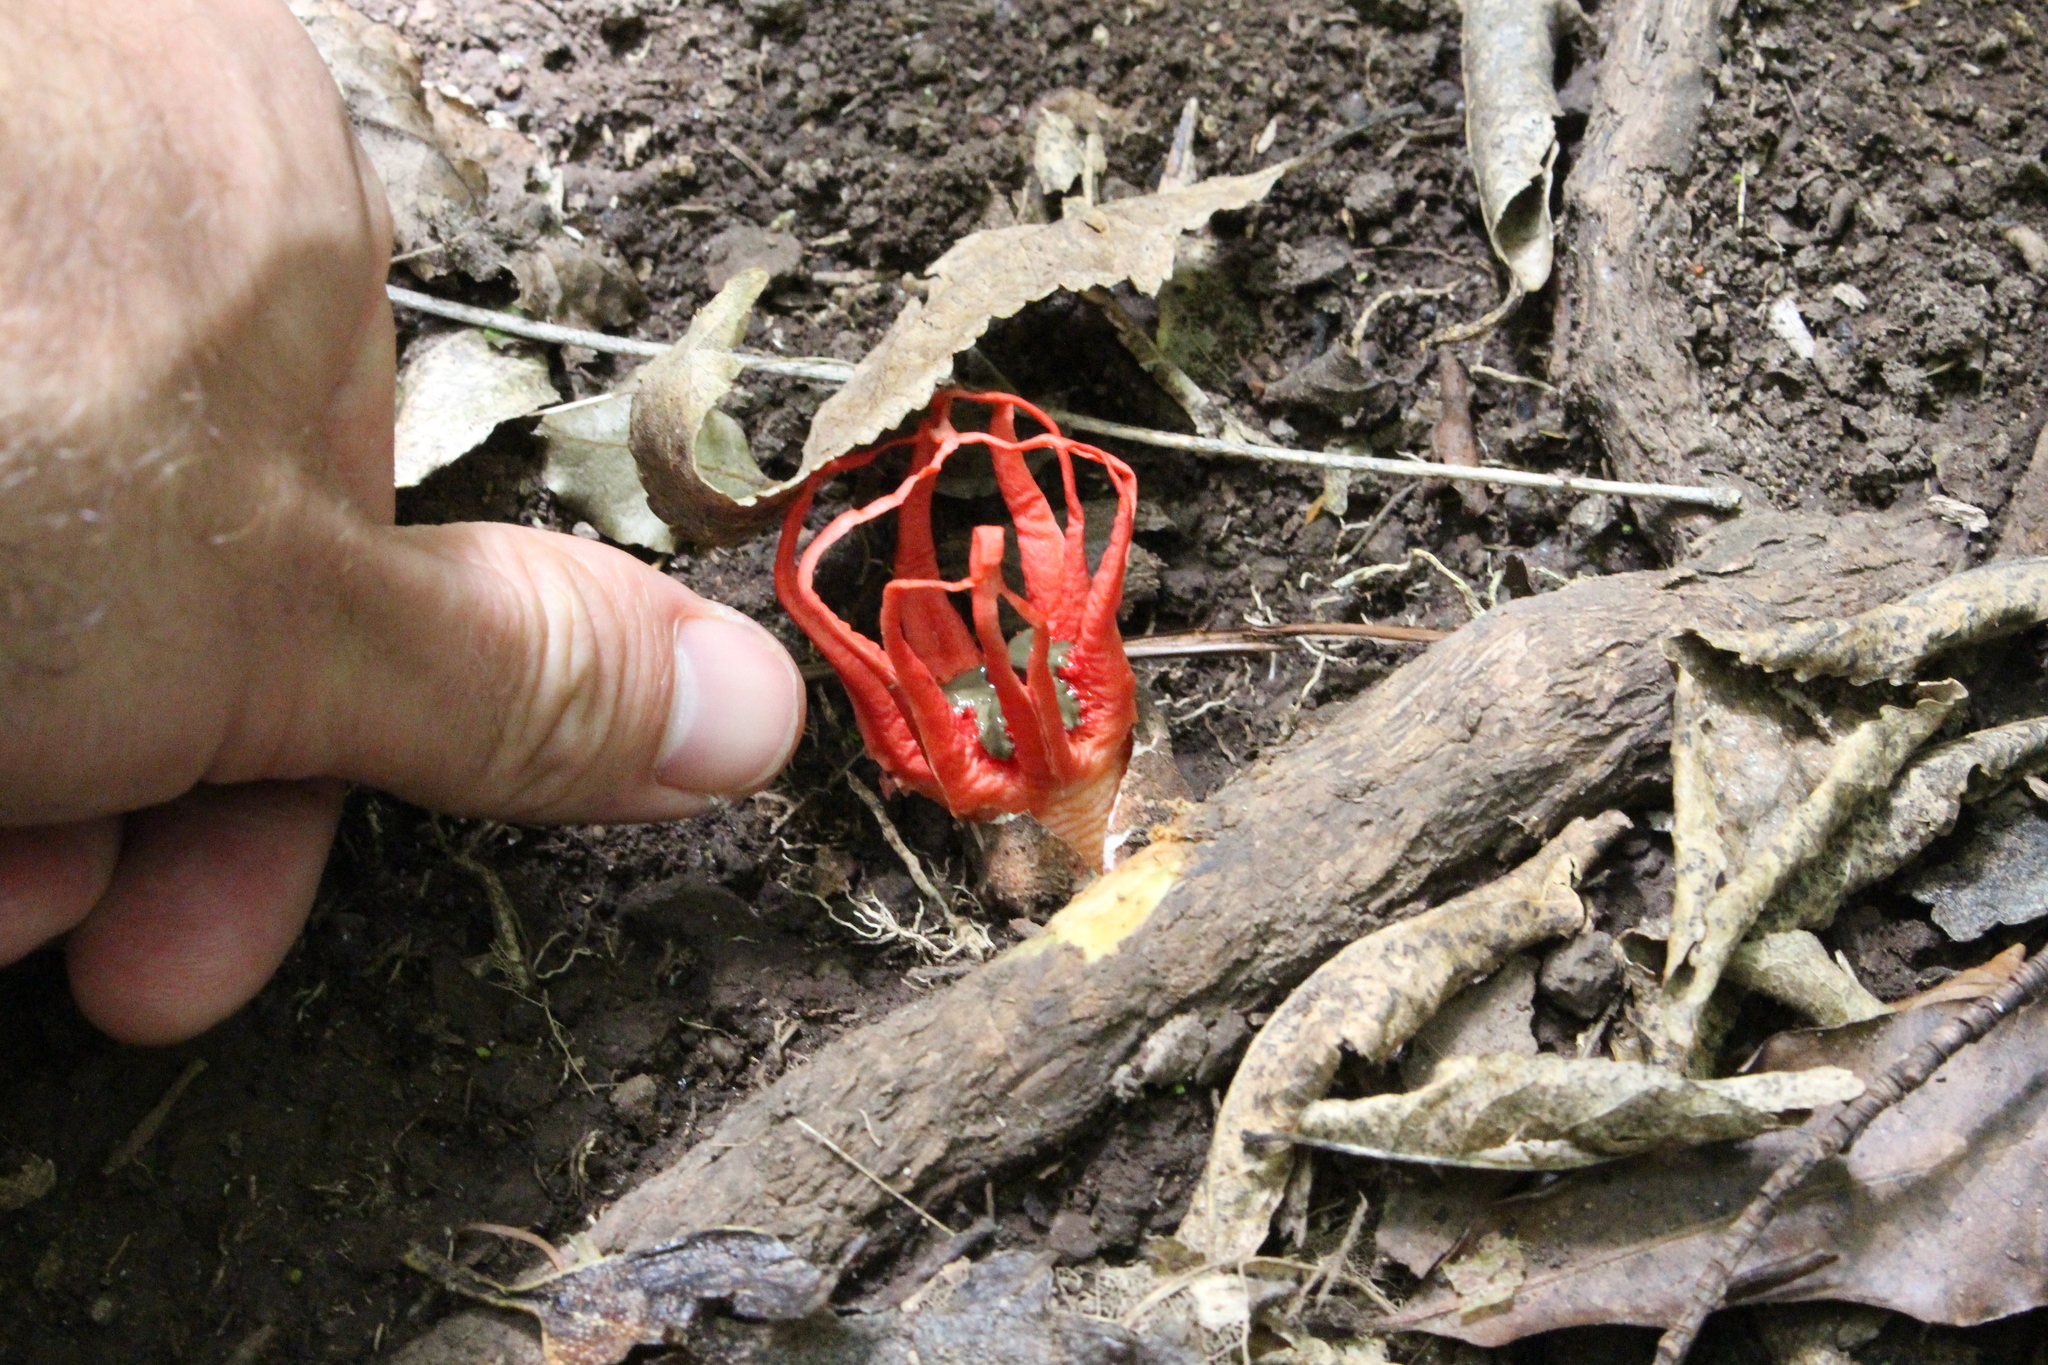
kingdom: Fungi
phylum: Basidiomycota
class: Agaricomycetes
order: Phallales
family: Phallaceae
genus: Aseroe
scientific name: Aseroe rubra
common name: Starfish fungus
